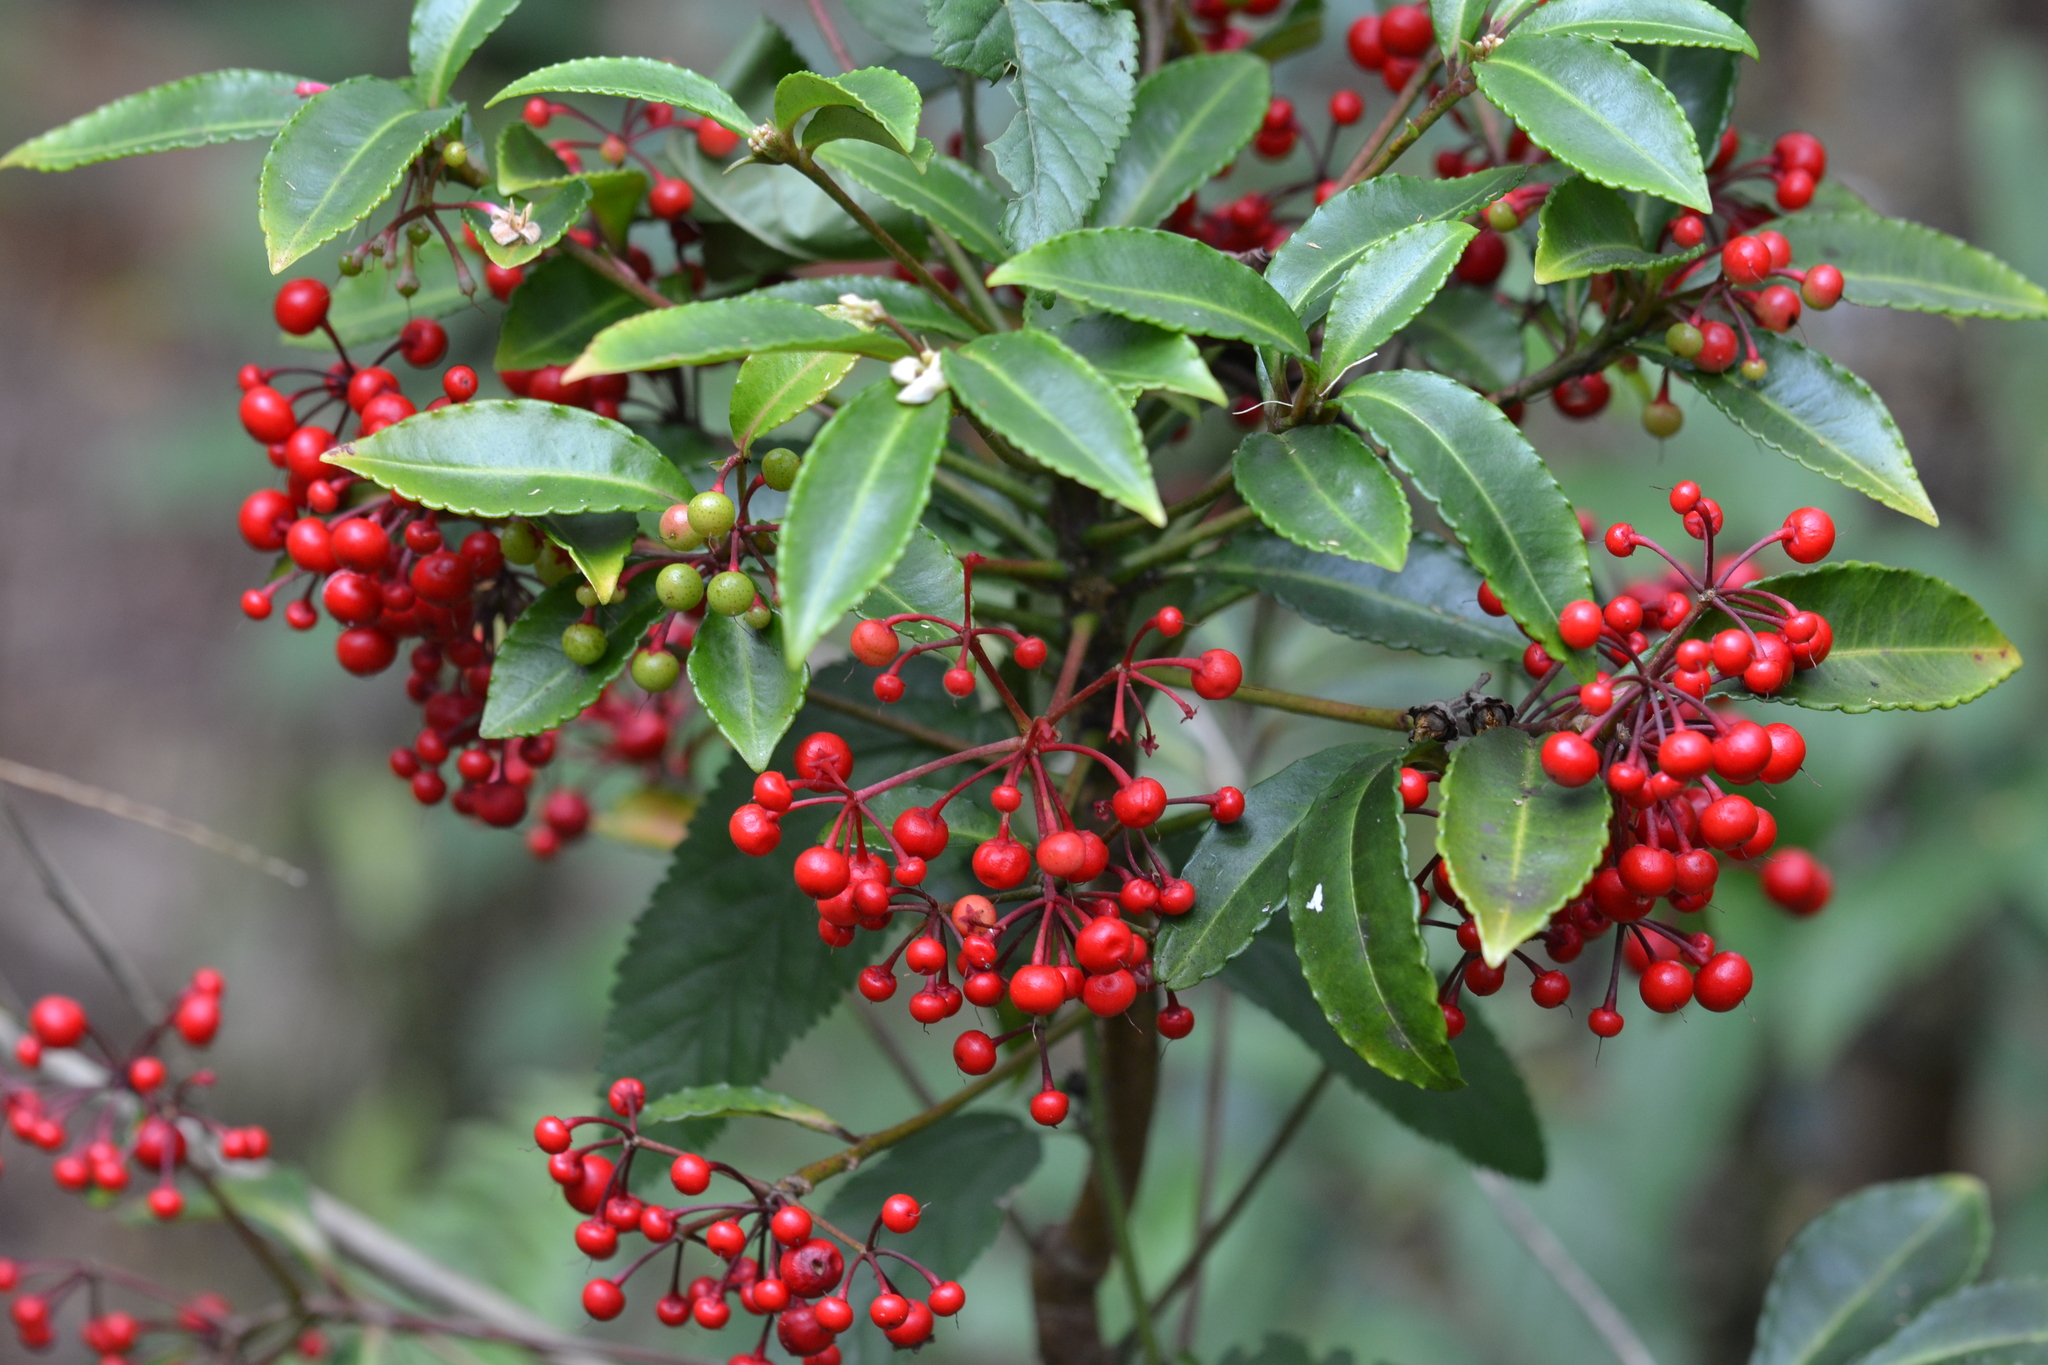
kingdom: Plantae
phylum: Tracheophyta
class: Magnoliopsida
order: Ericales
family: Primulaceae
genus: Ardisia
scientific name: Ardisia crenata
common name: Hen's eyes
